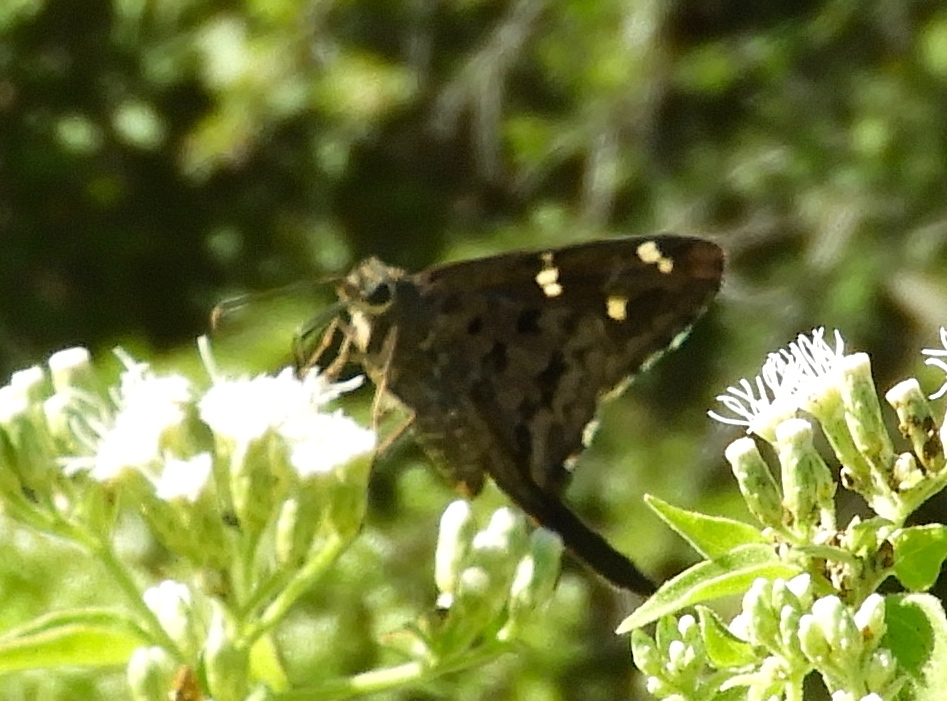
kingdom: Animalia
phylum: Arthropoda
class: Insecta
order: Lepidoptera
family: Hesperiidae
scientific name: Hesperiidae
